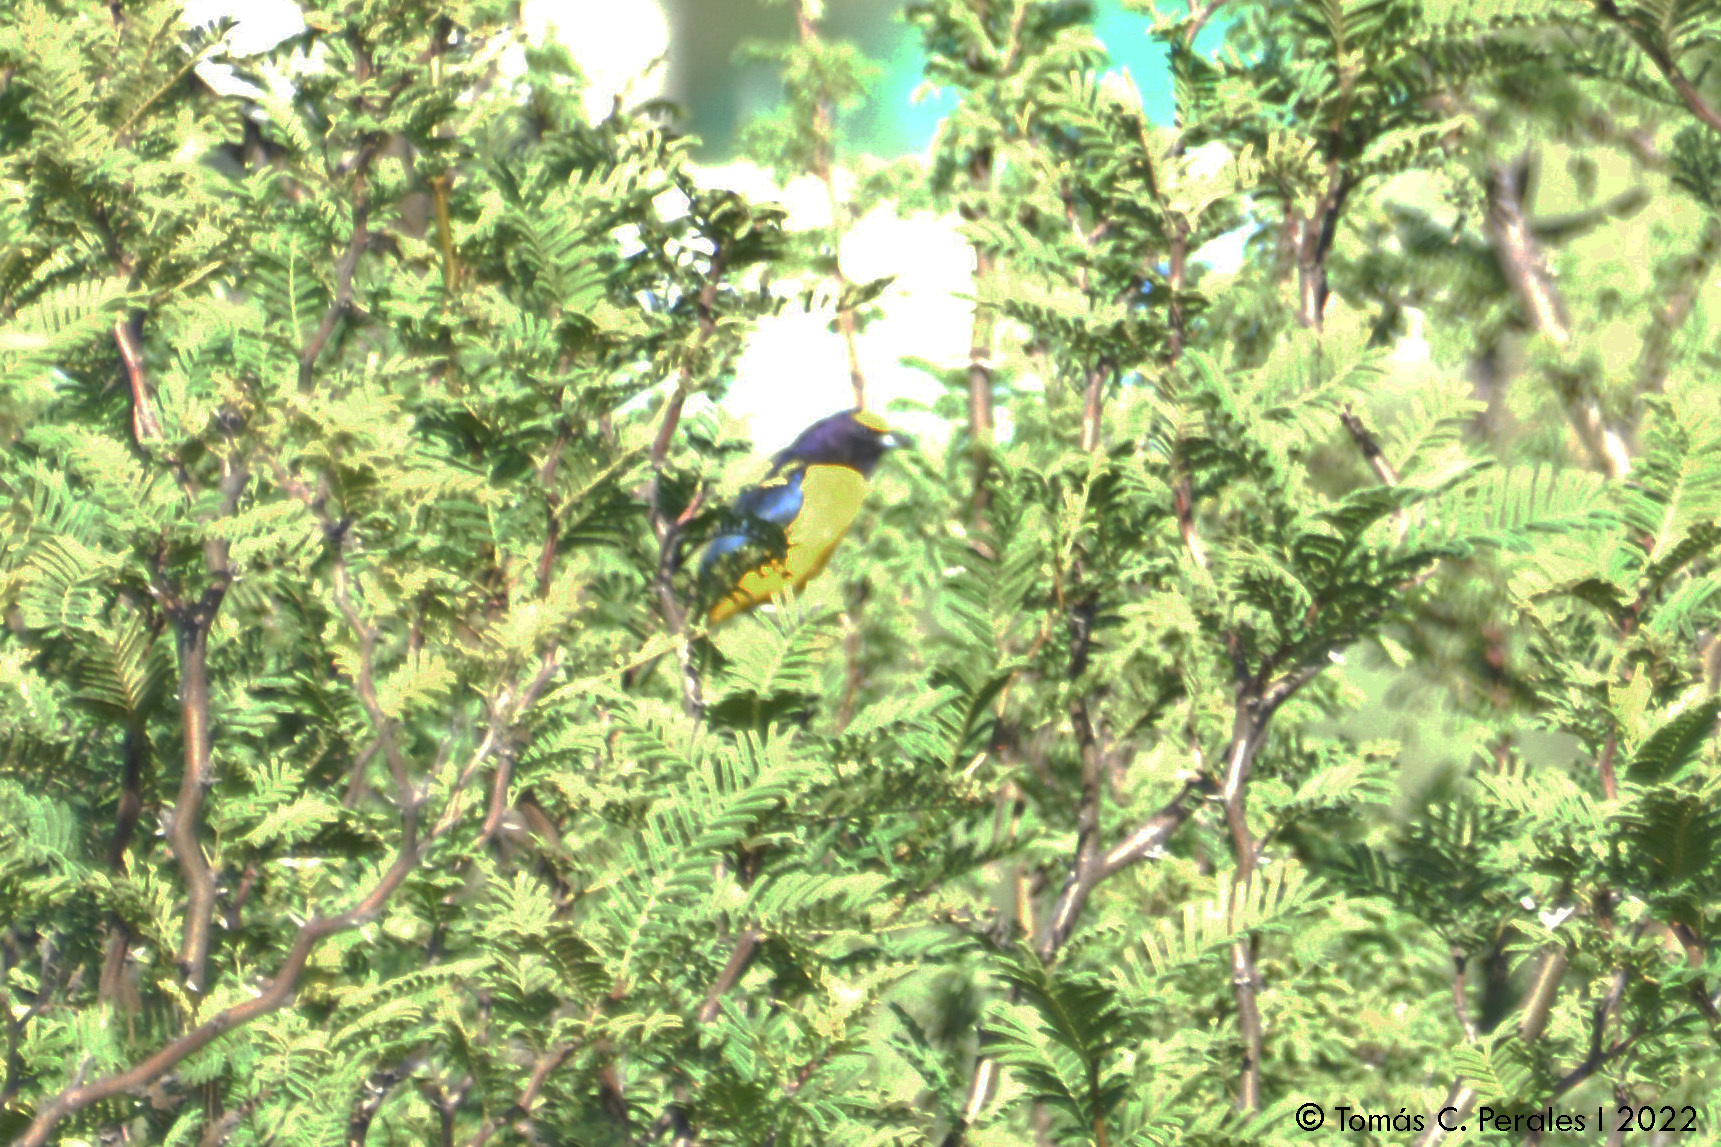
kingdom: Animalia
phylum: Chordata
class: Aves
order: Passeriformes
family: Fringillidae
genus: Euphonia
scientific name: Euphonia chlorotica
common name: Purple-throated euphonia
